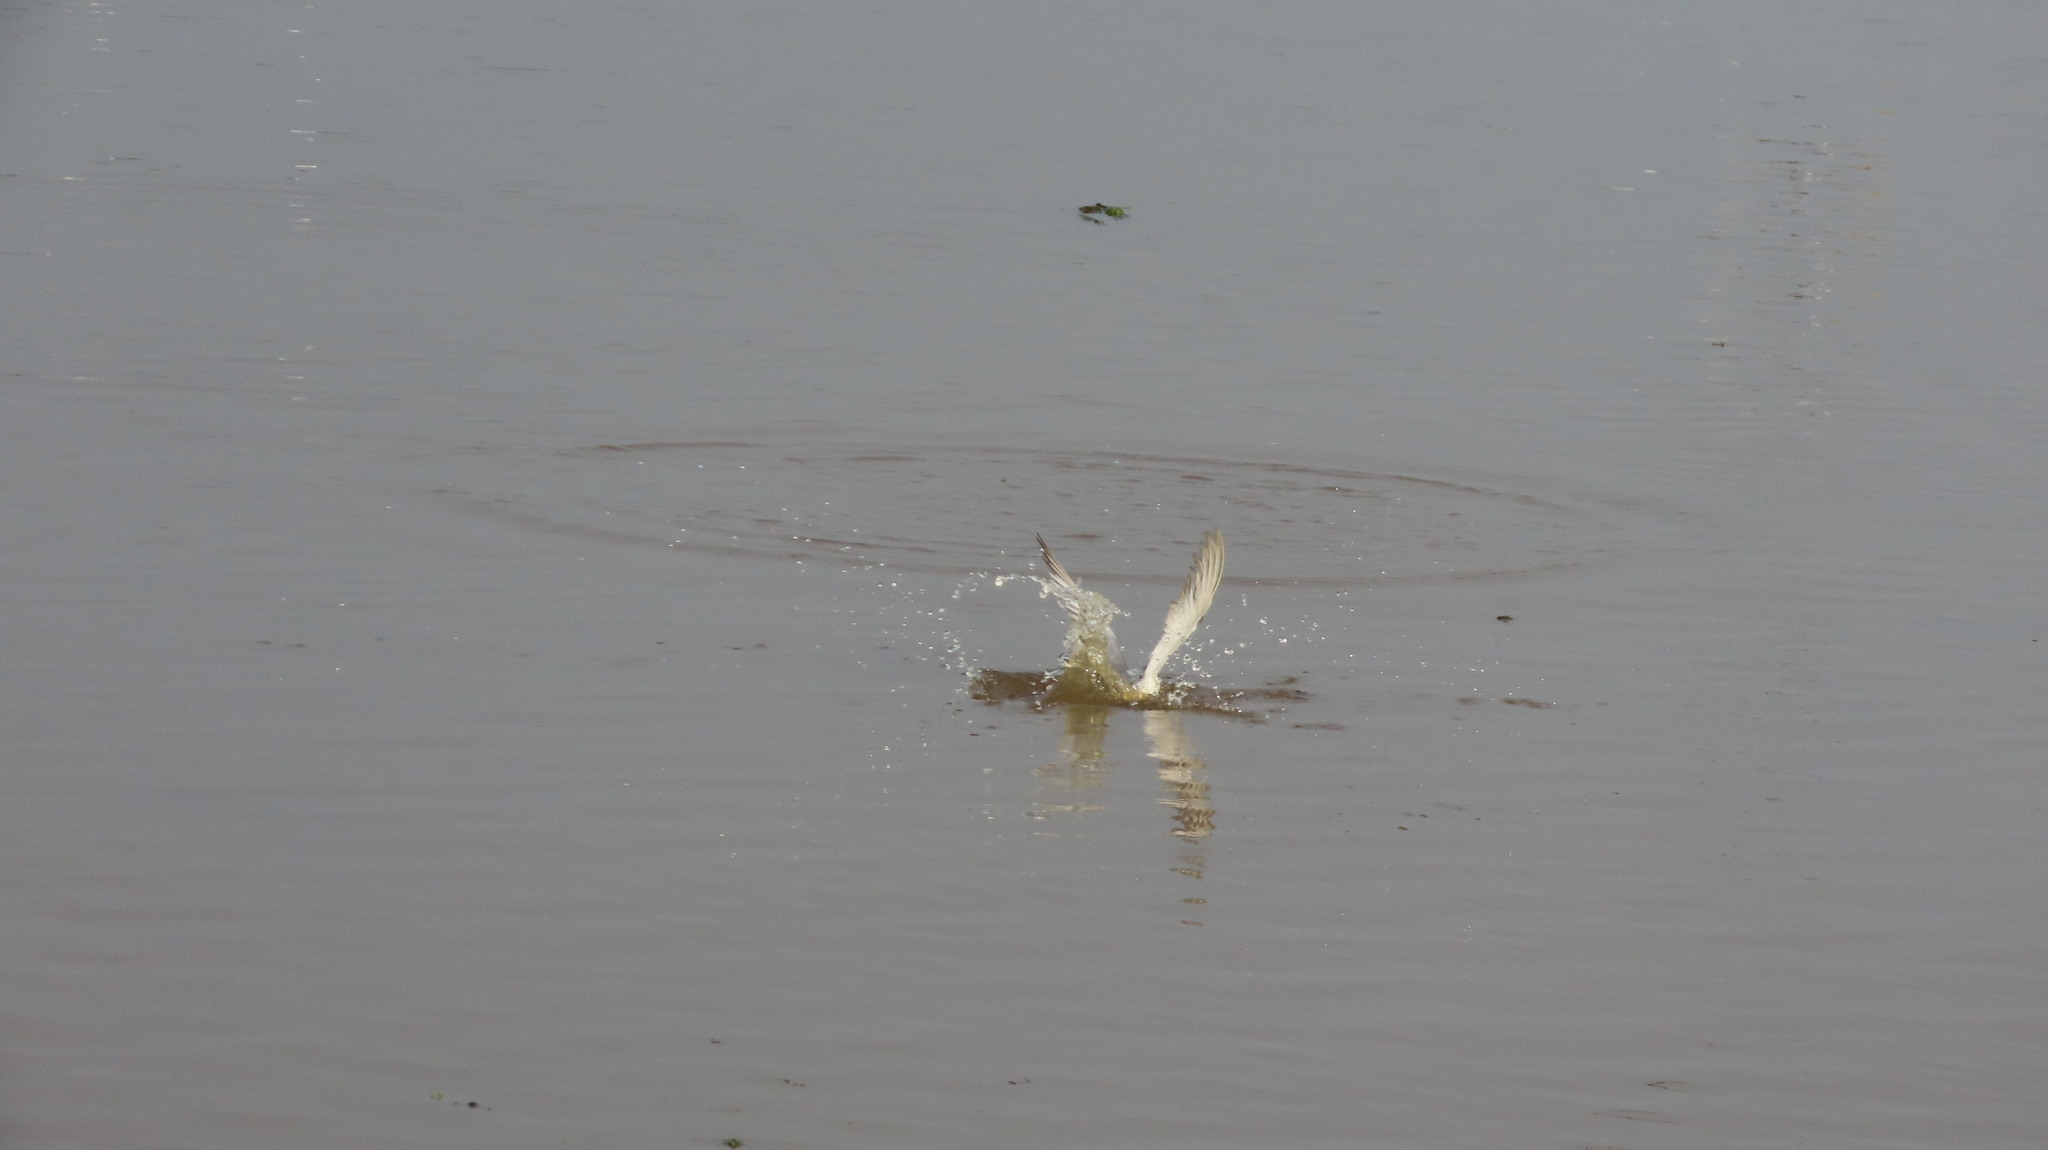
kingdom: Animalia
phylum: Chordata
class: Aves
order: Charadriiformes
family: Laridae
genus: Chlidonias
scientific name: Chlidonias hybrida
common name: Whiskered tern
